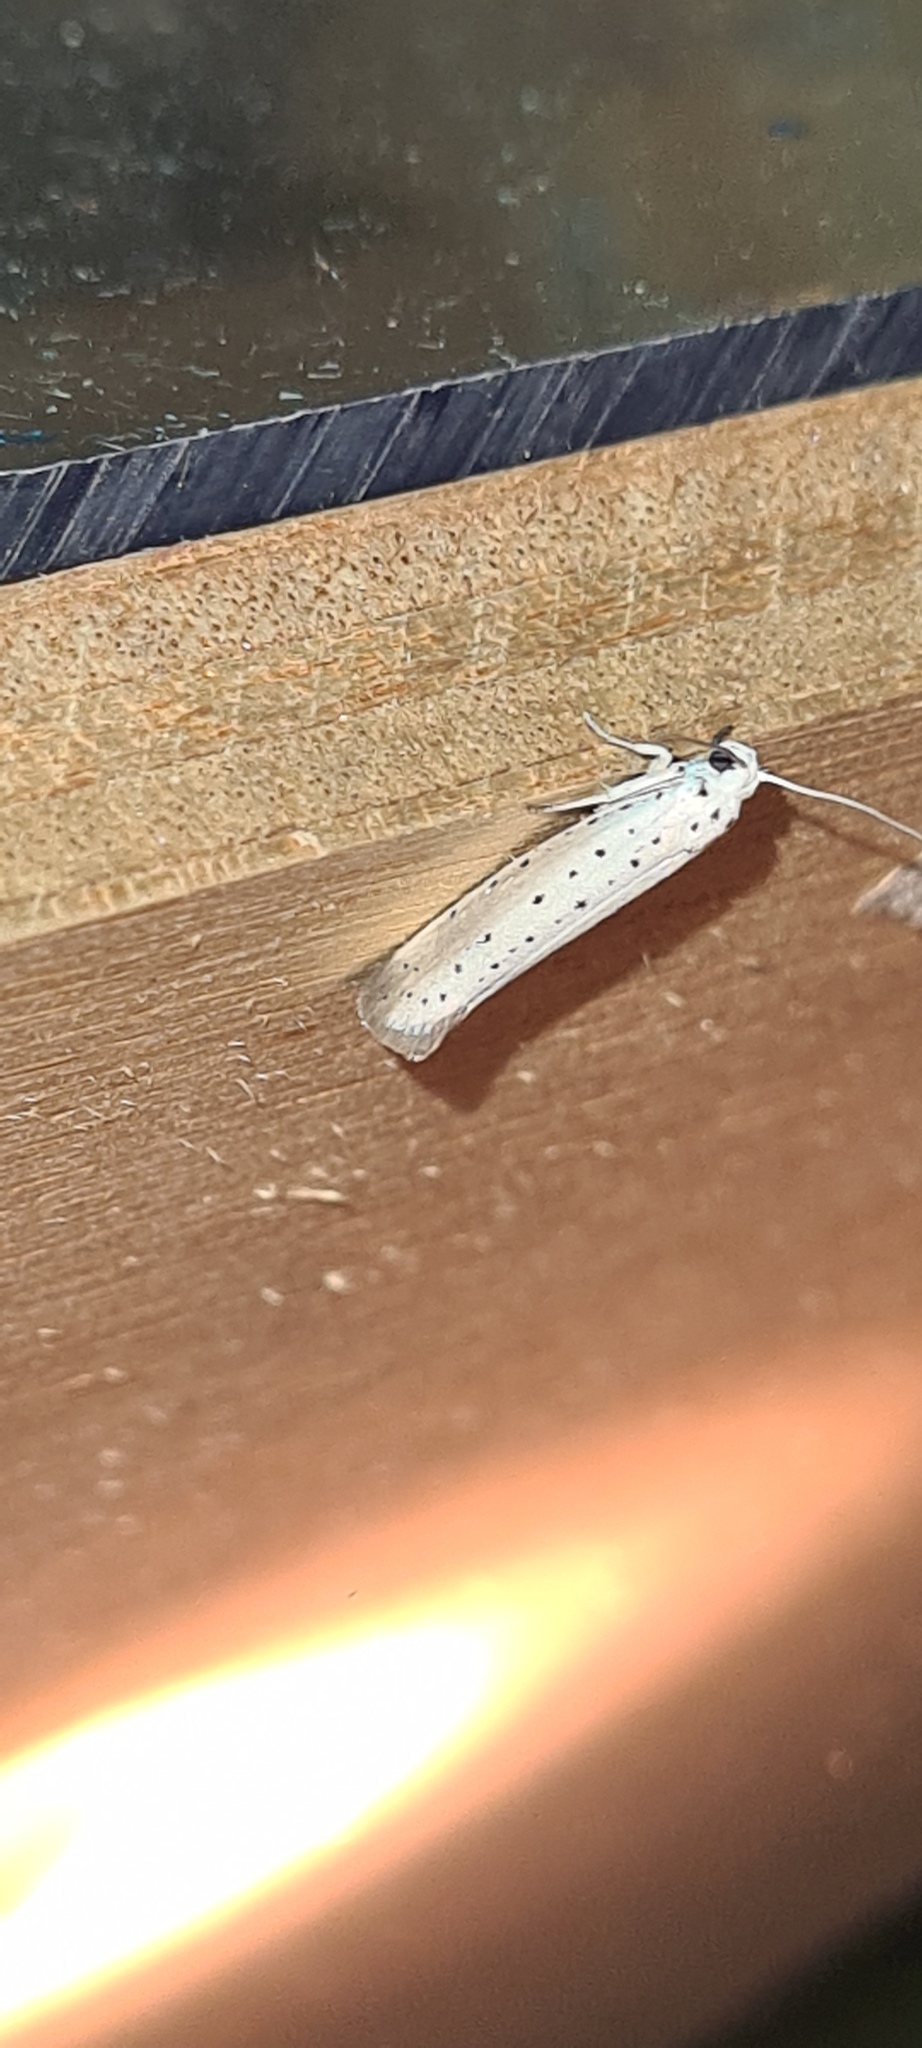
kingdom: Animalia
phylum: Arthropoda
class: Insecta
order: Lepidoptera
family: Yponomeutidae
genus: Yponomeuta
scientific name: Yponomeuta padella
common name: Orchard ermine
